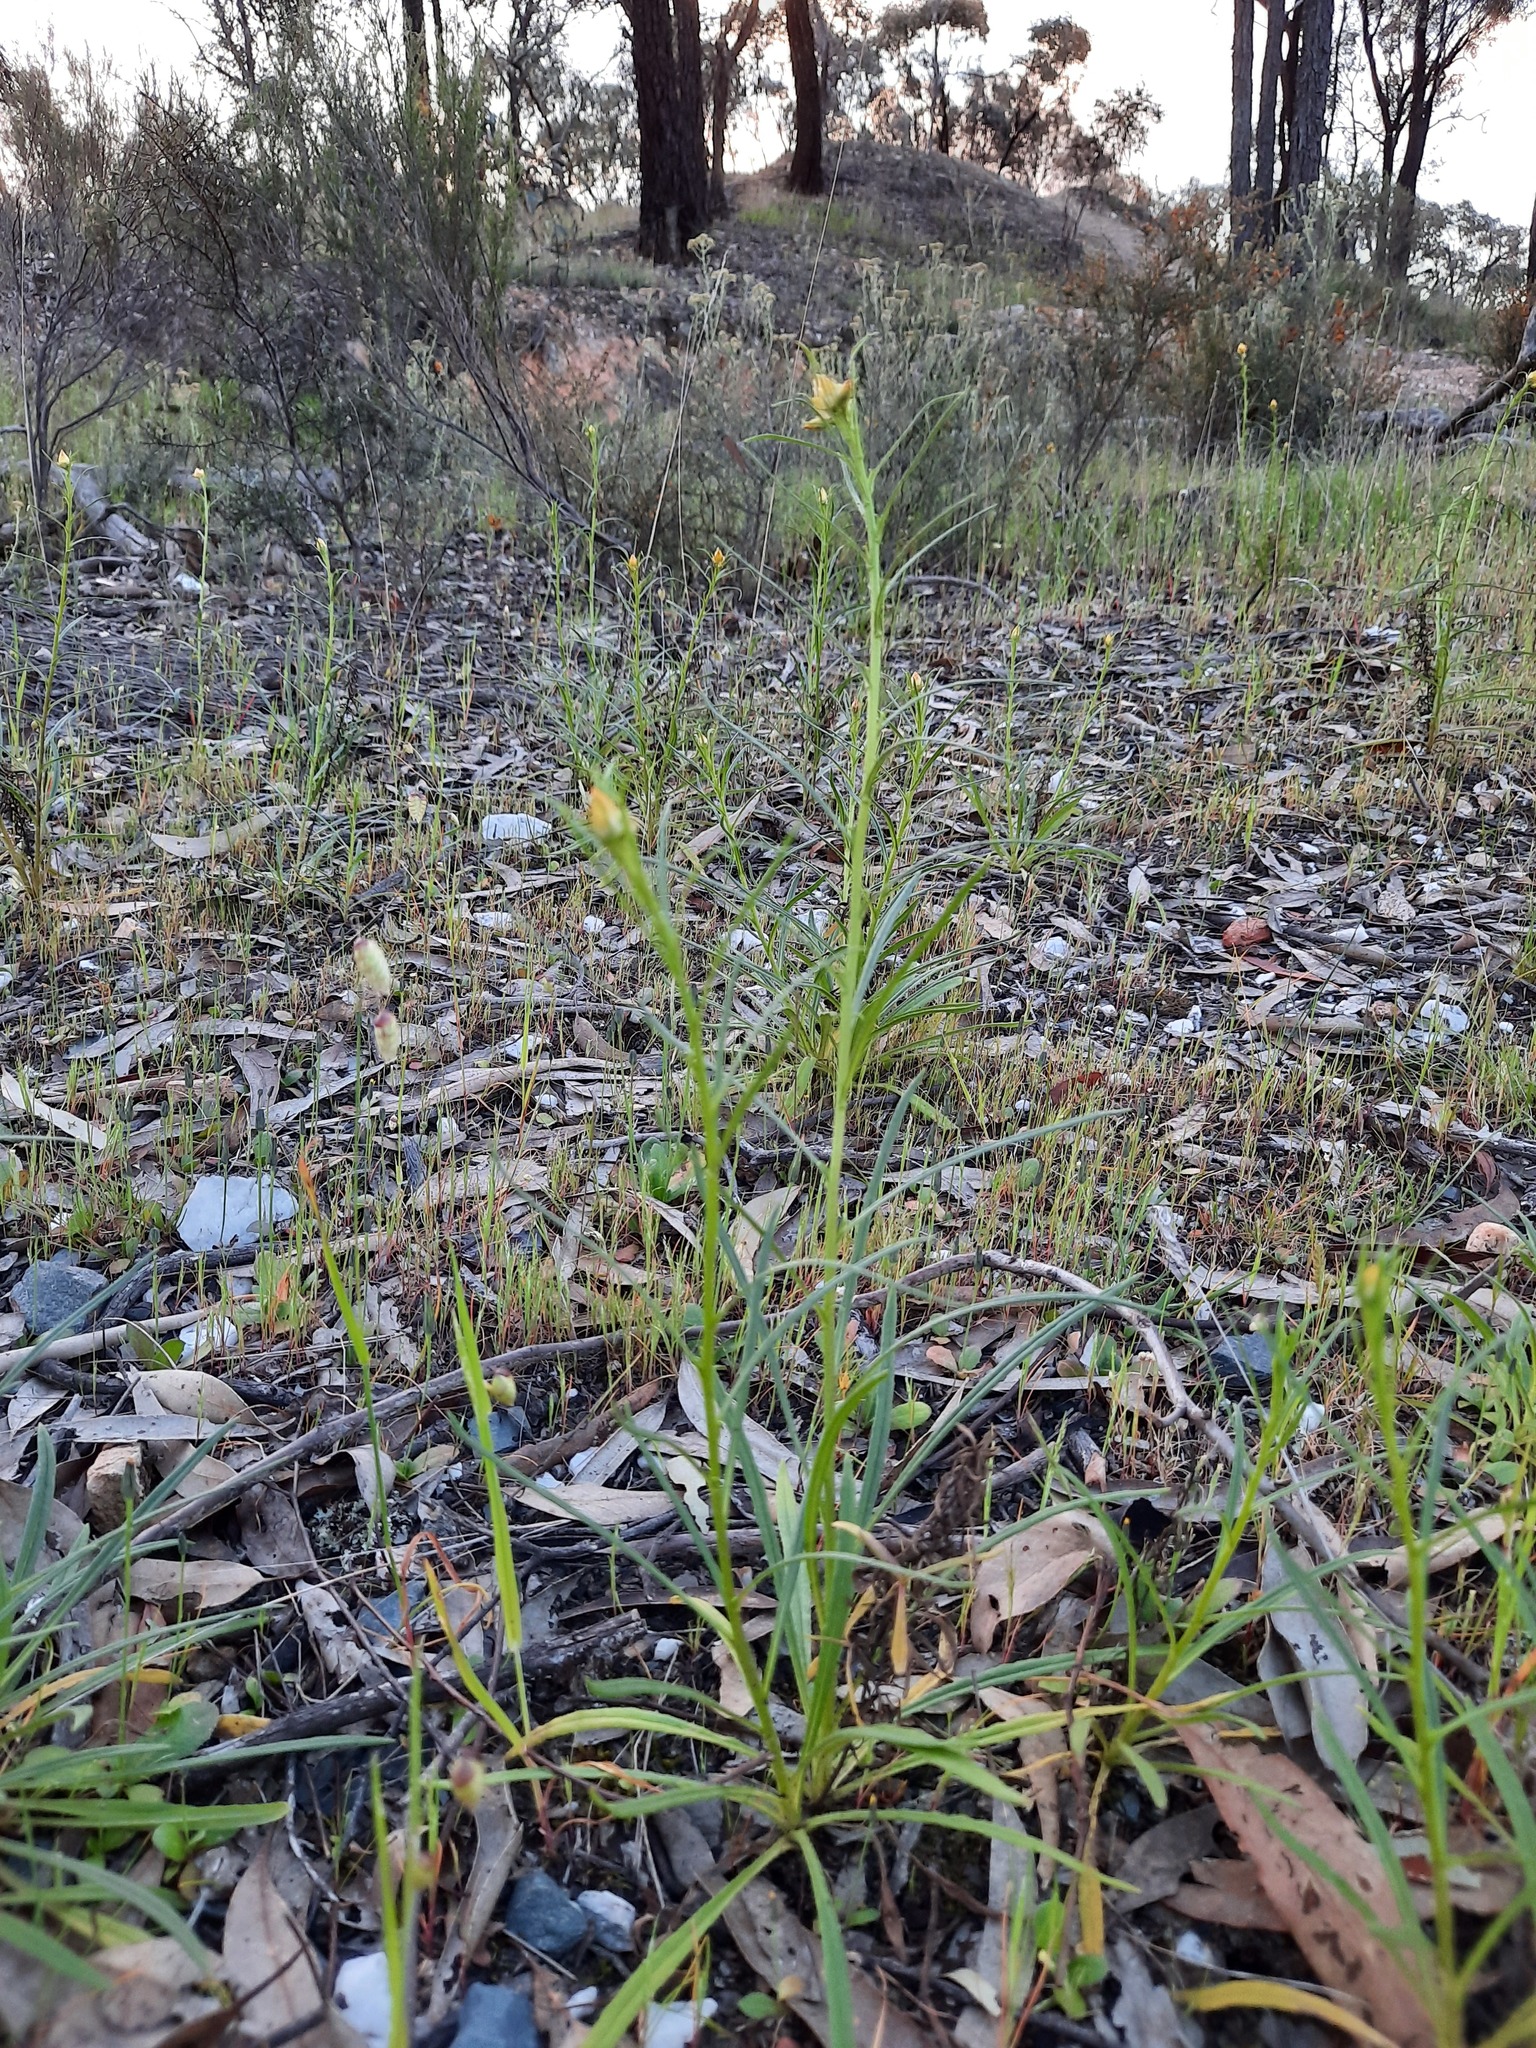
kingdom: Plantae
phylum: Tracheophyta
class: Magnoliopsida
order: Asterales
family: Asteraceae
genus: Xerochrysum
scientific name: Xerochrysum viscosum
